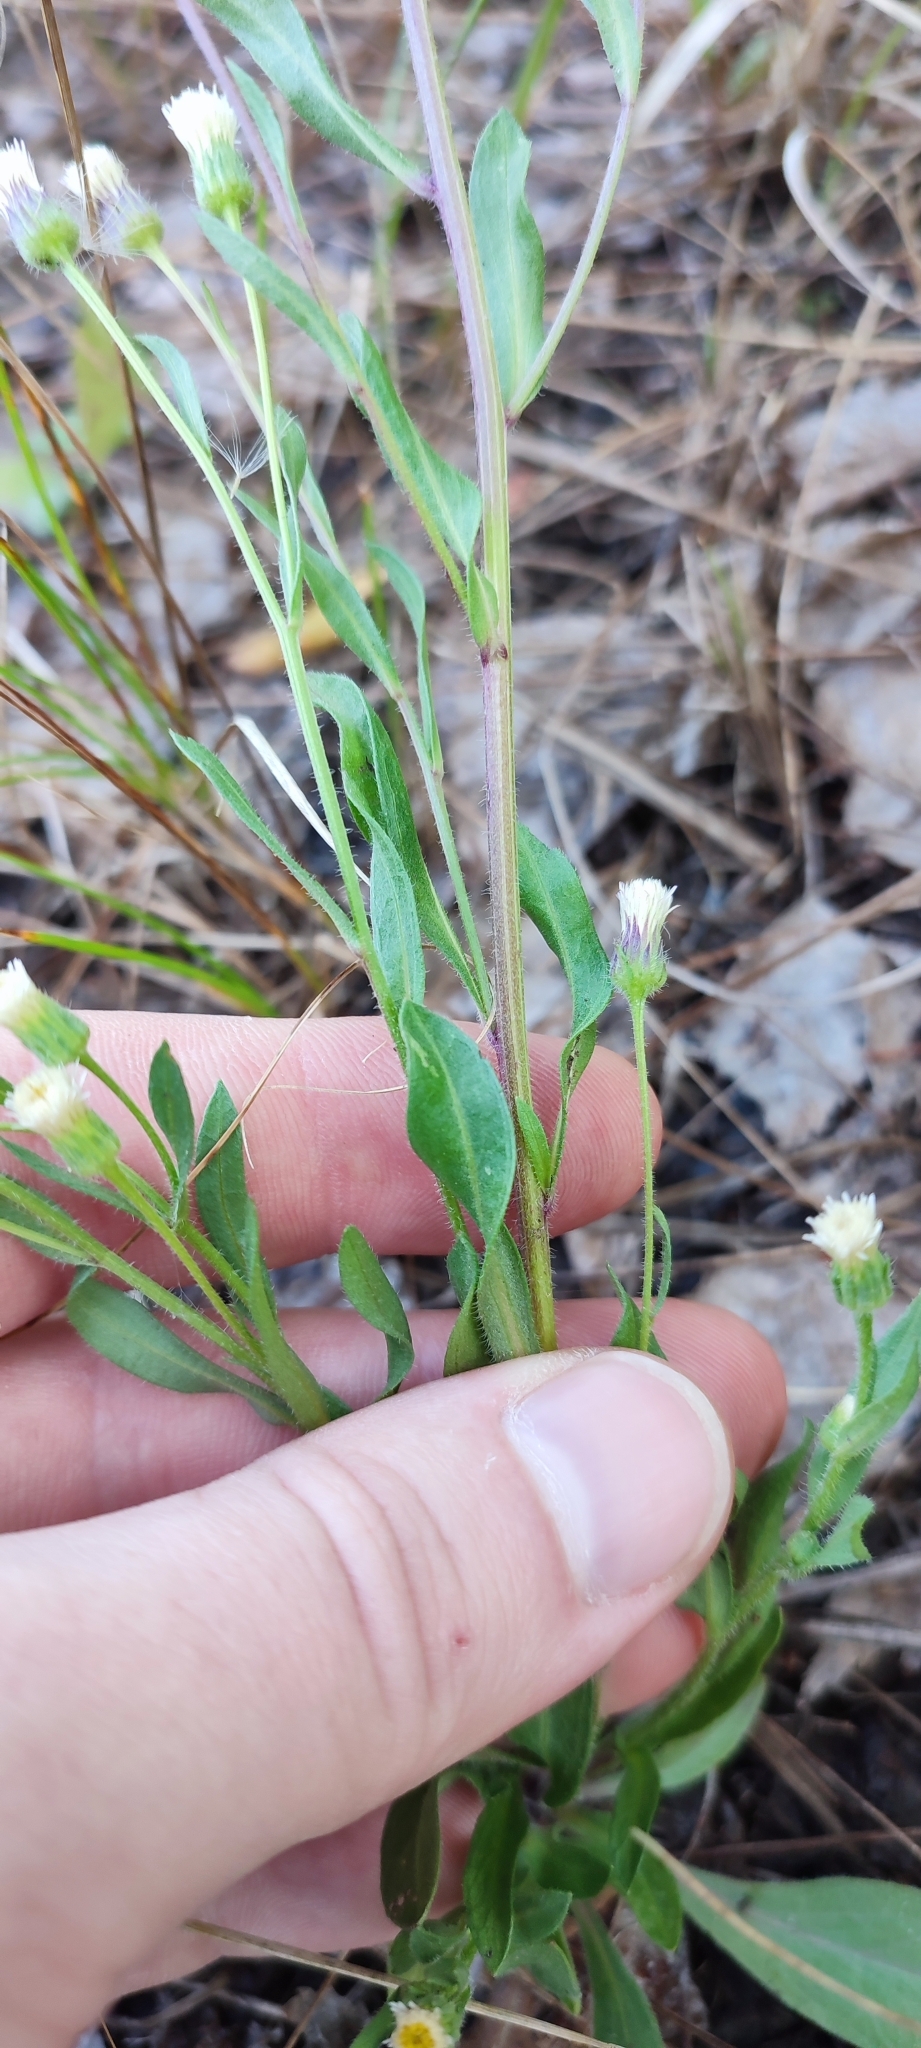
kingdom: Plantae
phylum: Tracheophyta
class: Magnoliopsida
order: Asterales
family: Asteraceae
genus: Erigeron
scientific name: Erigeron acris
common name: Blue fleabane
